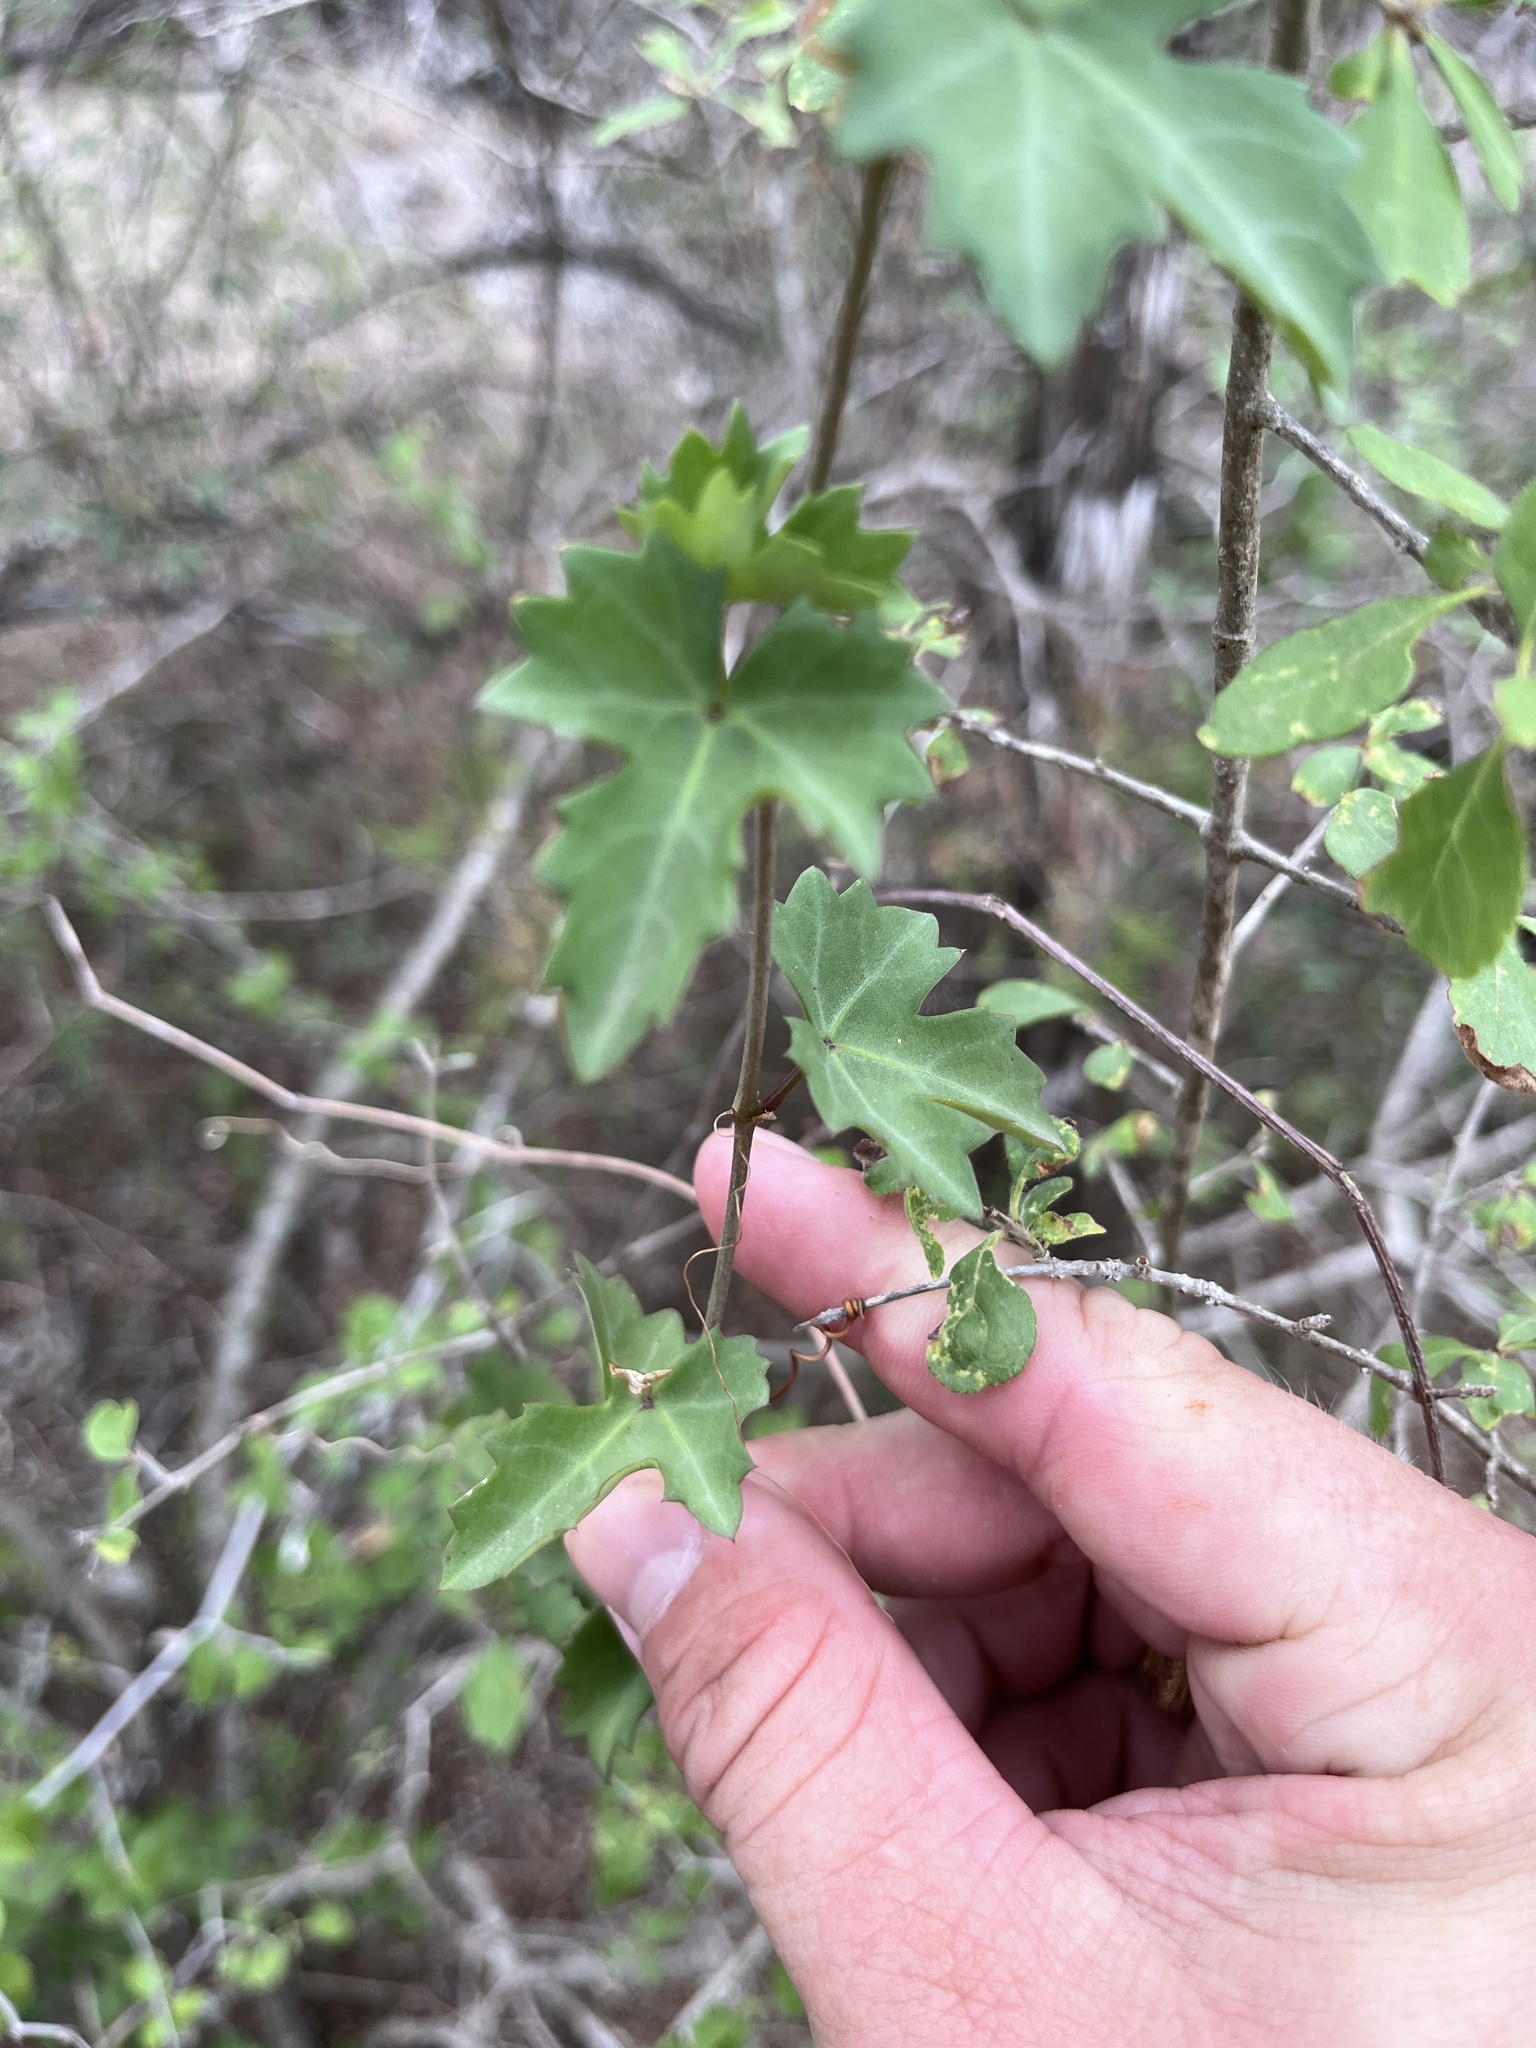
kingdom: Plantae
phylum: Tracheophyta
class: Magnoliopsida
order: Vitales
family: Vitaceae
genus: Cissus
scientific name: Cissus trifoliata
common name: Vine-sorrel
